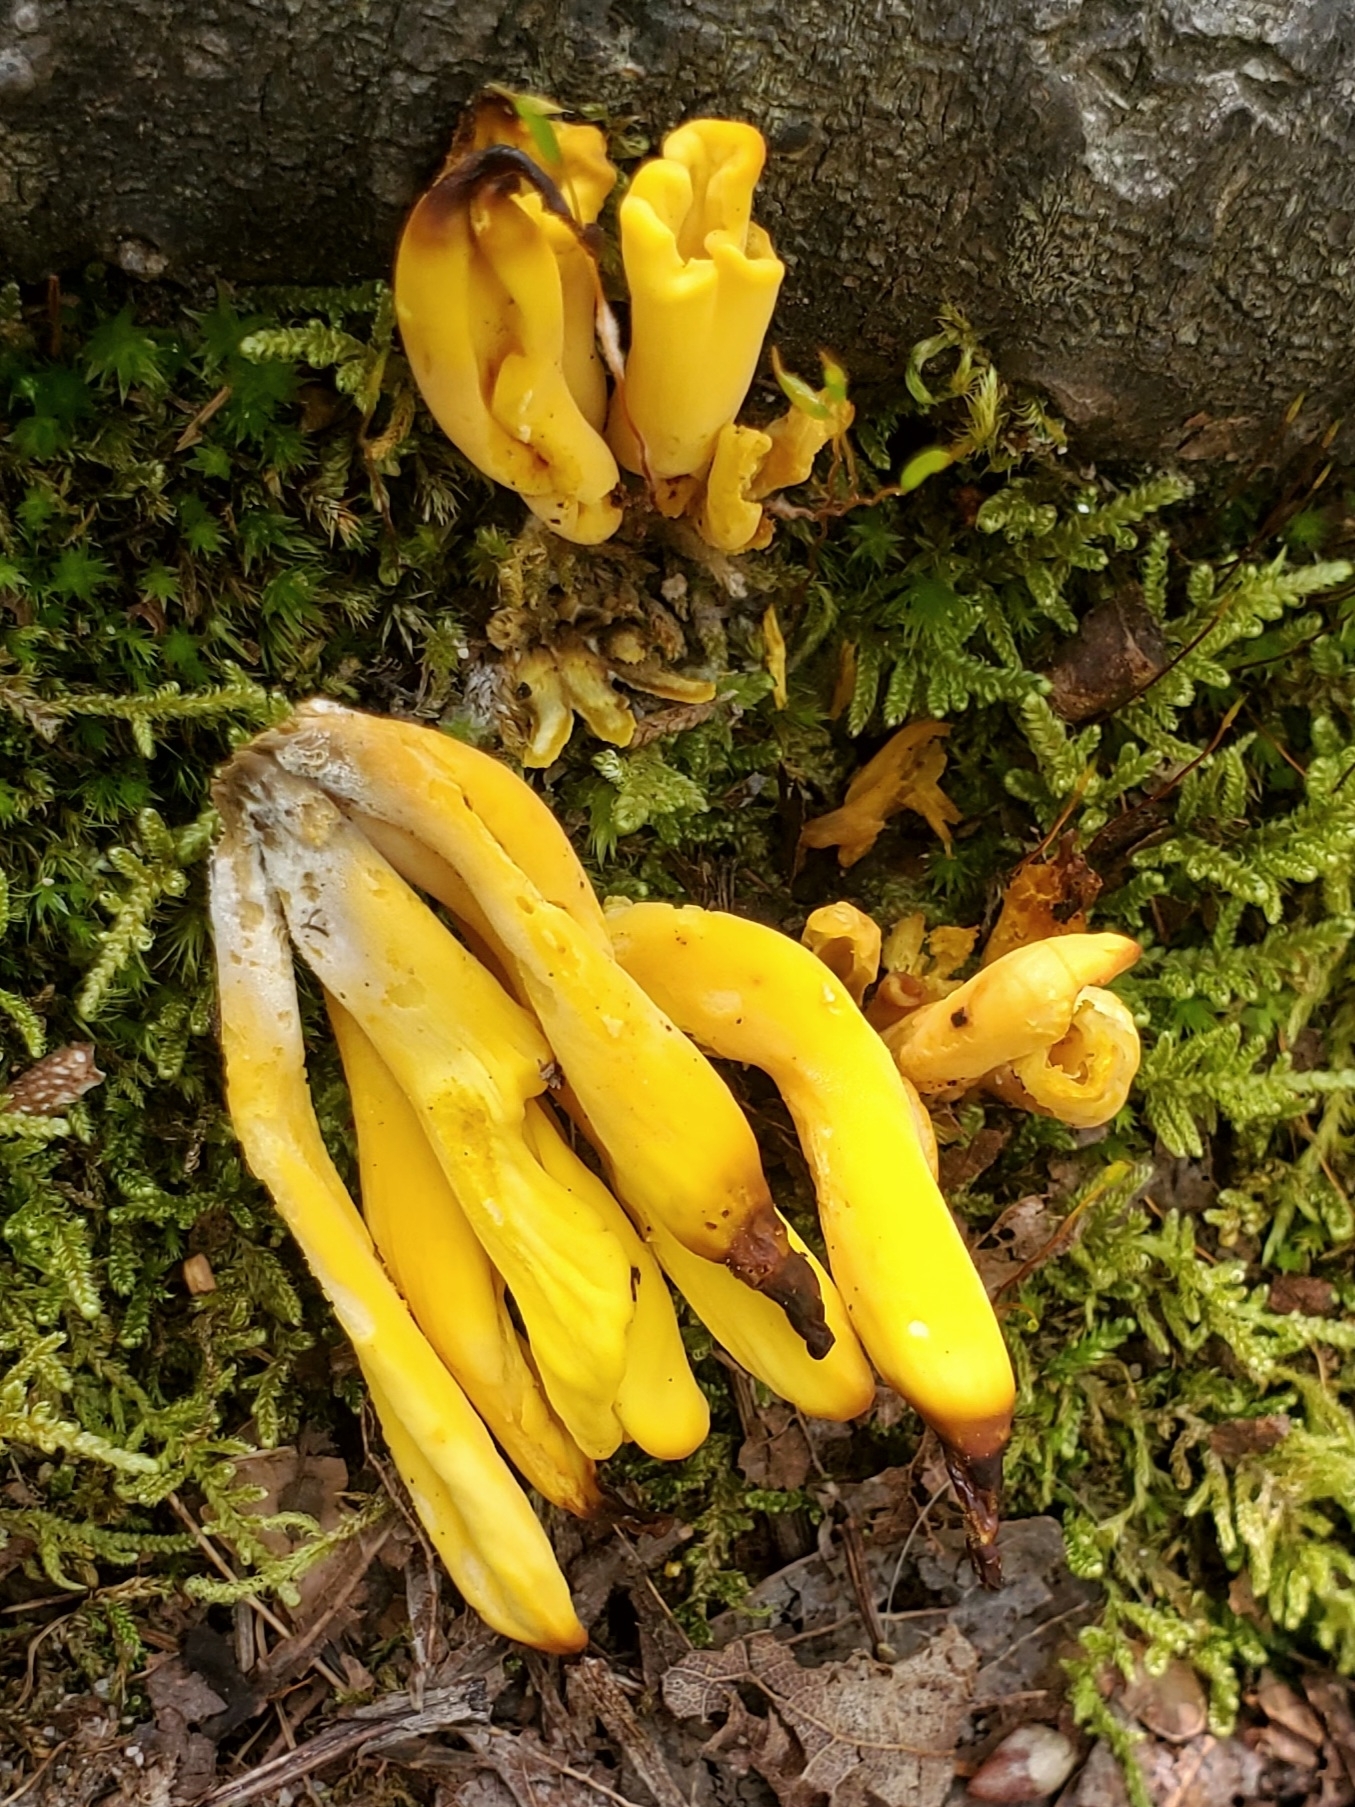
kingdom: Fungi
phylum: Basidiomycota
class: Agaricomycetes
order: Agaricales
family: Clavariaceae
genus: Clavulinopsis
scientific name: Clavulinopsis fusiformis
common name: Golden spindles
